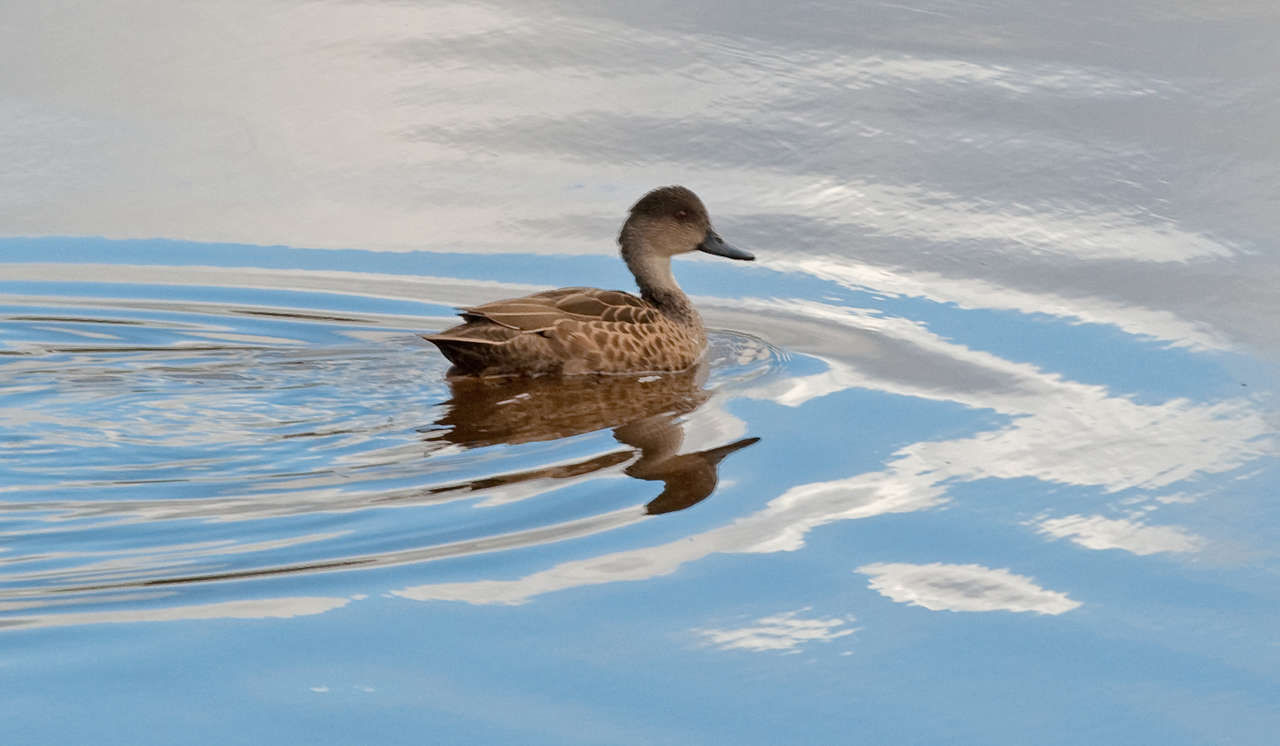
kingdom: Animalia
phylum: Chordata
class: Aves
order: Anseriformes
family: Anatidae
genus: Anas
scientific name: Anas gracilis
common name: Grey teal
